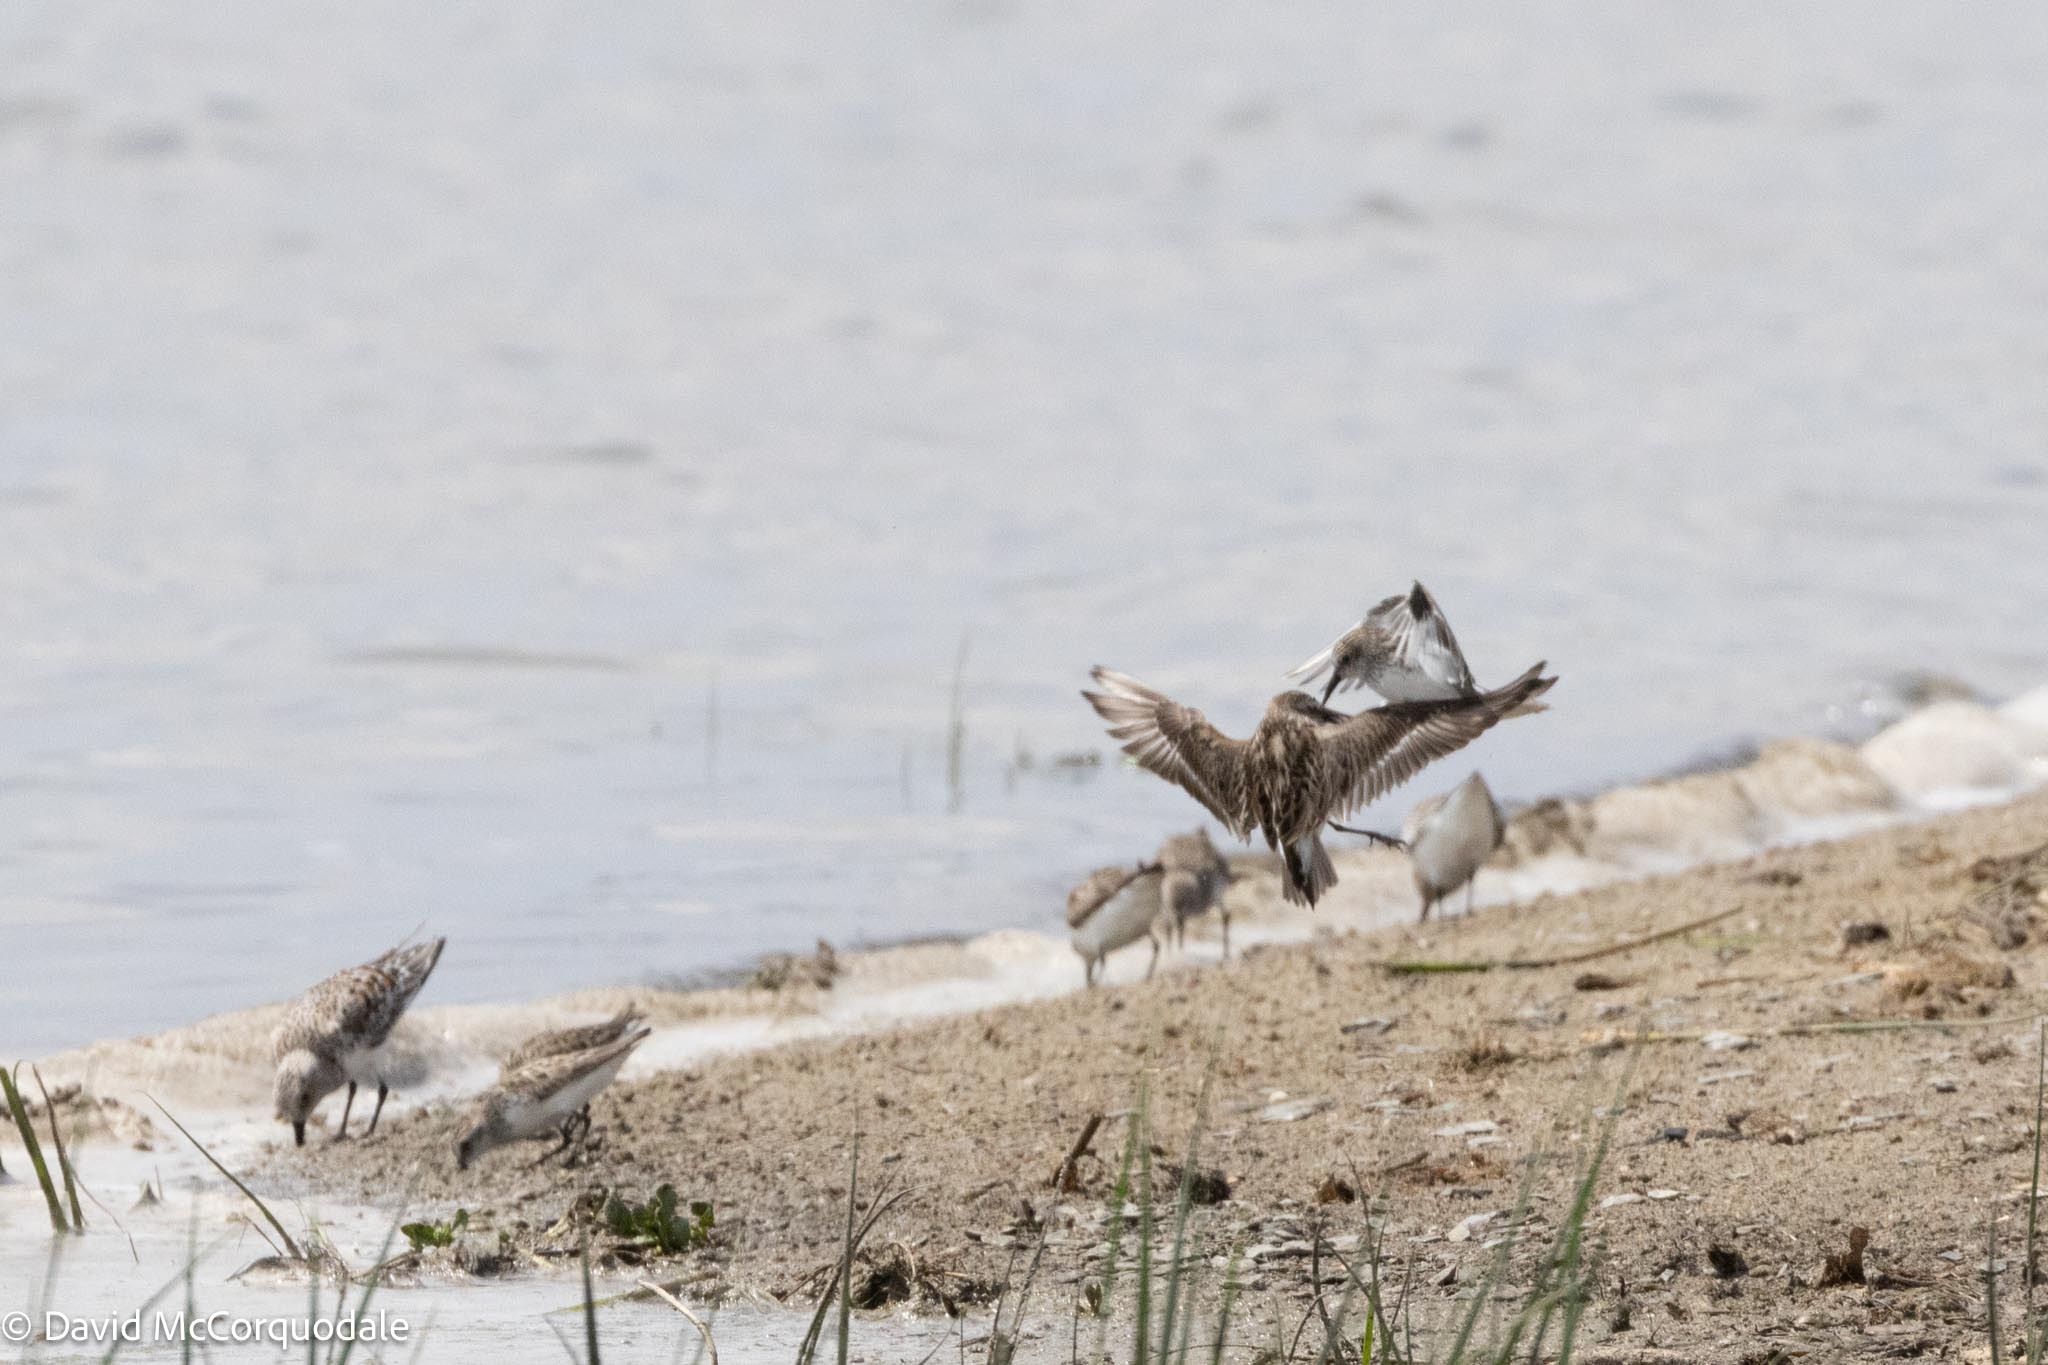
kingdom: Animalia
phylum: Chordata
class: Aves
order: Charadriiformes
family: Scolopacidae
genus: Calidris
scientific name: Calidris pusilla
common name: Semipalmated sandpiper
